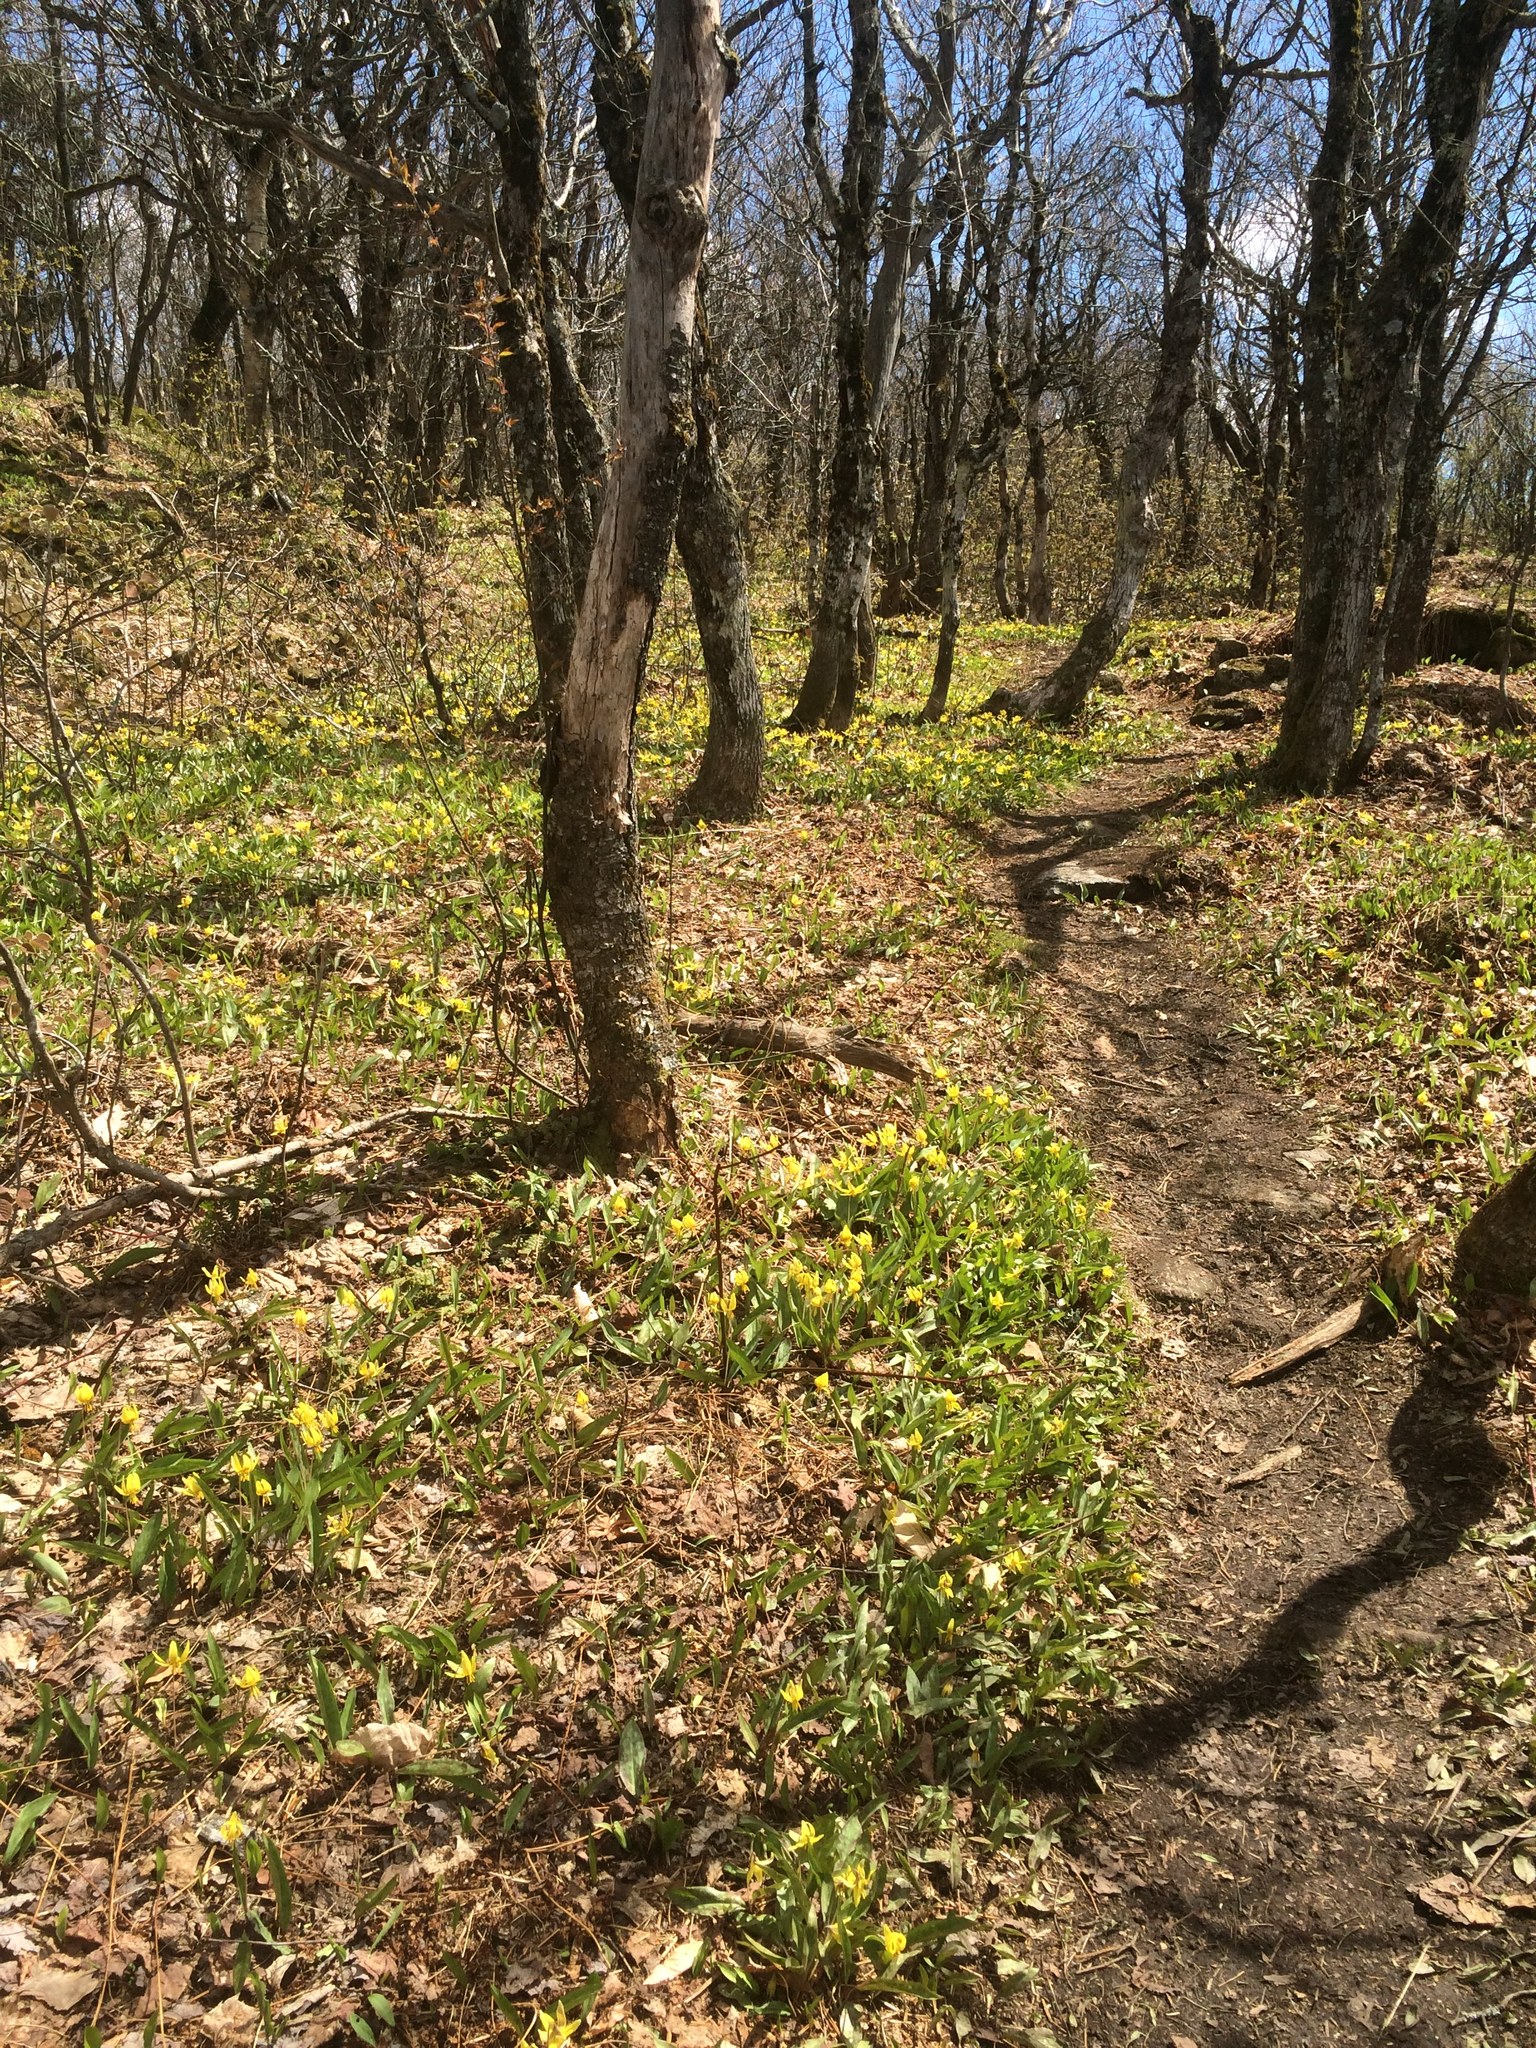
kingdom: Plantae
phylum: Tracheophyta
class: Liliopsida
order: Liliales
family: Liliaceae
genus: Erythronium
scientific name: Erythronium americanum
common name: Yellow adder's-tongue
